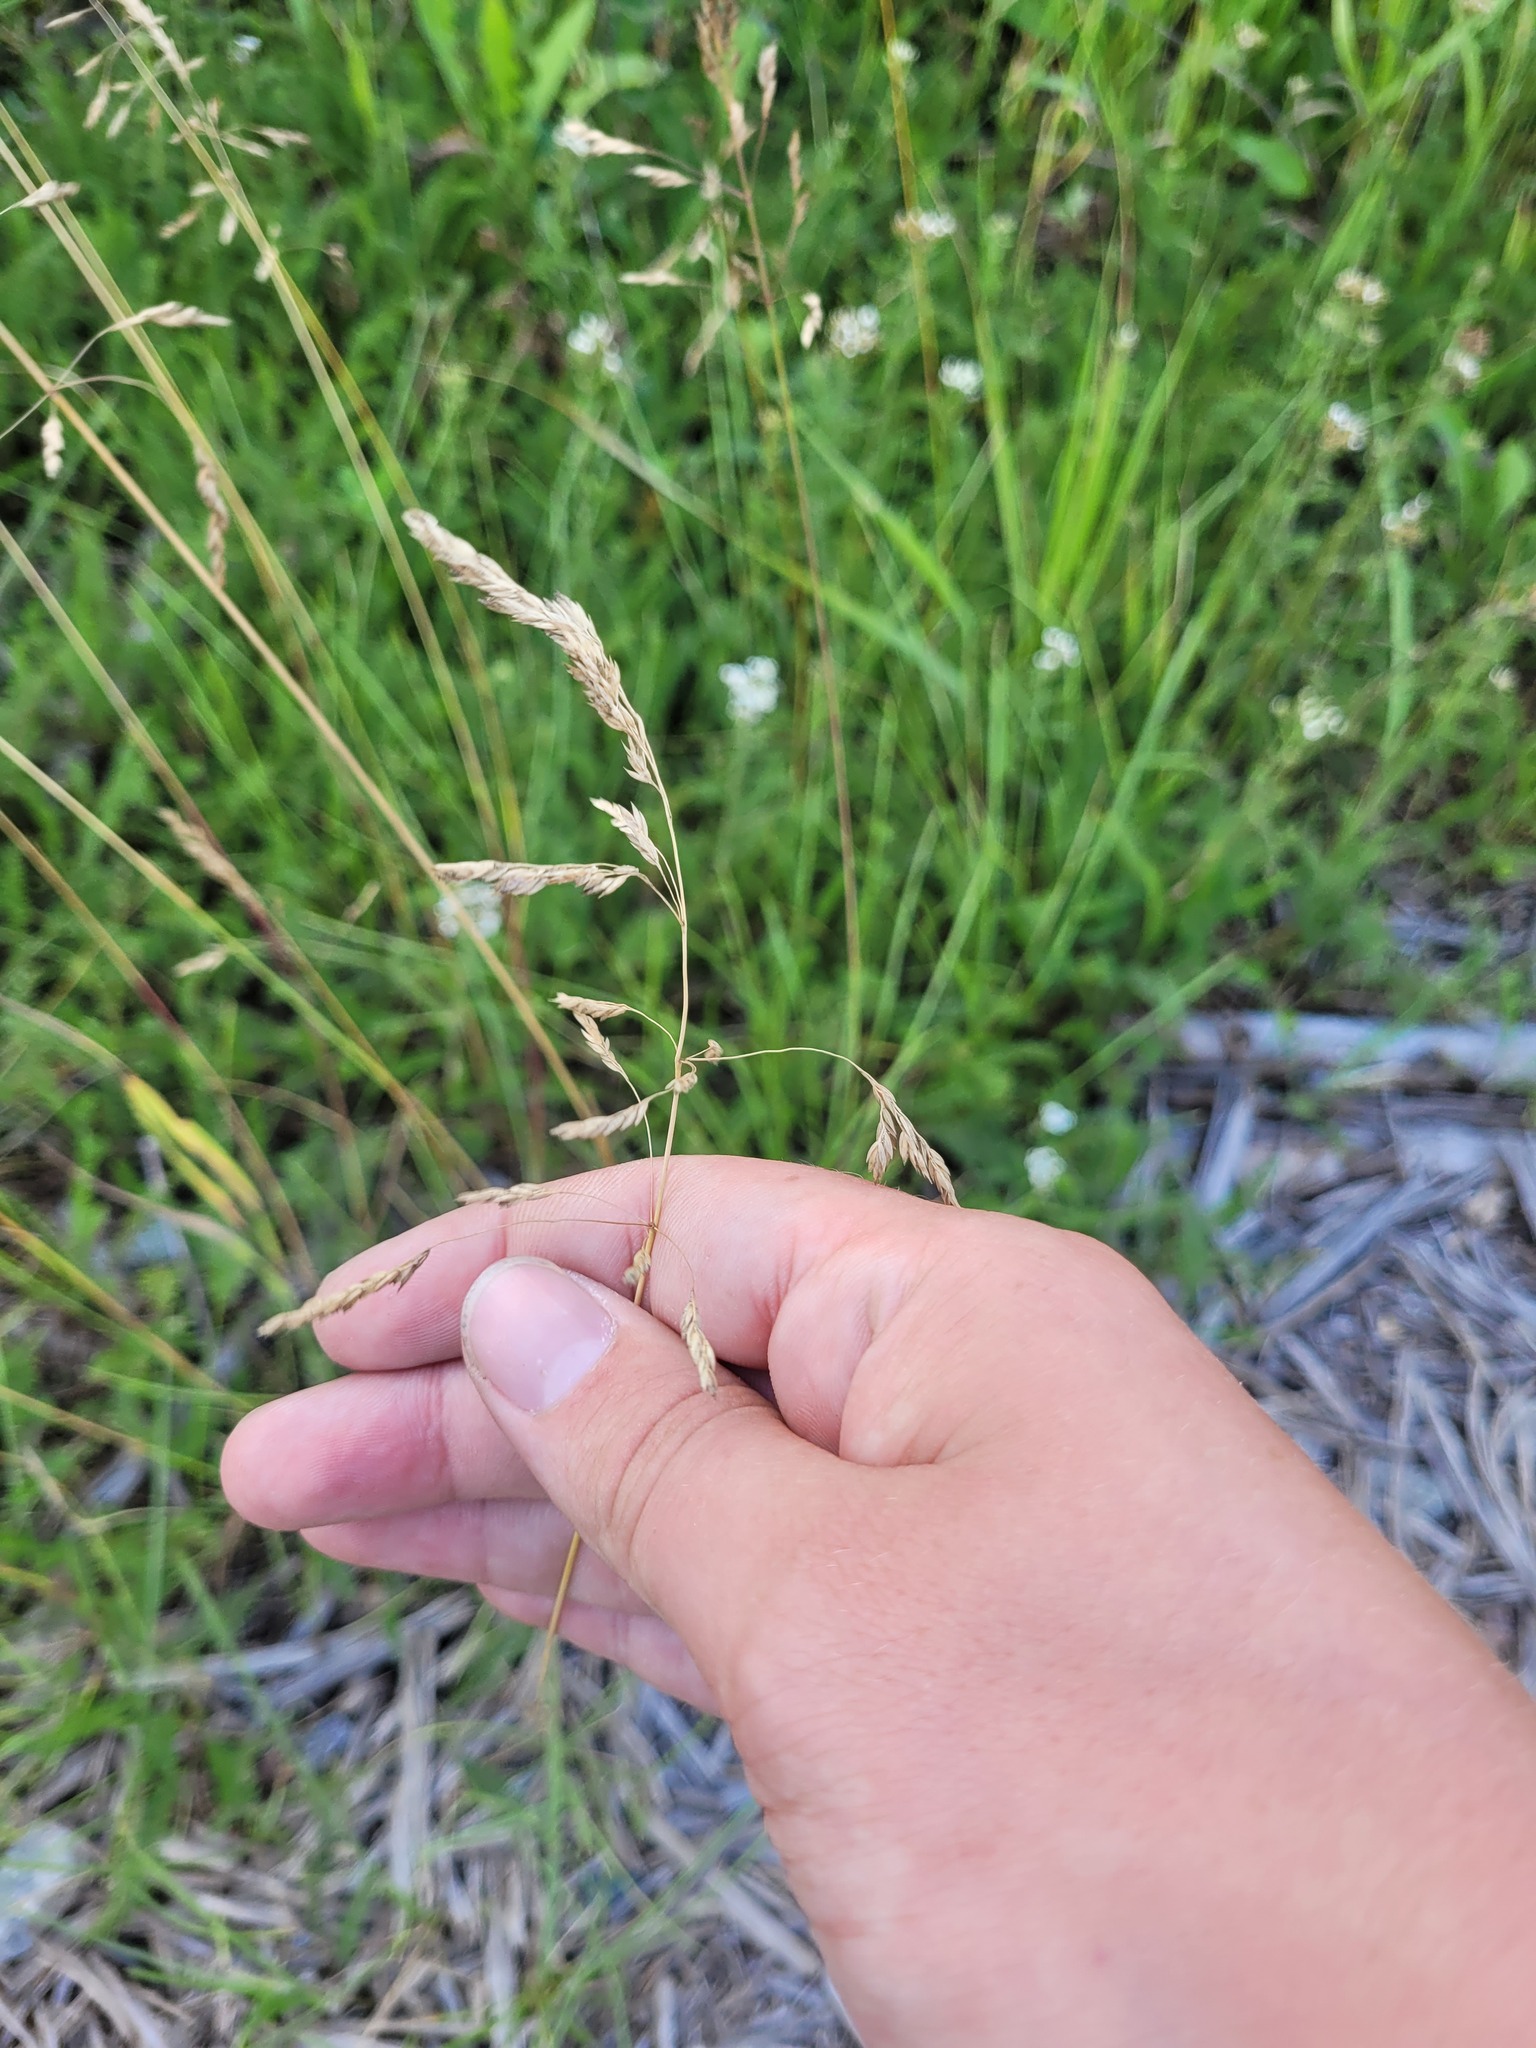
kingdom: Plantae
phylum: Tracheophyta
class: Liliopsida
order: Poales
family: Poaceae
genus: Poa
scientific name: Poa angustifolia
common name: Narrow-leaved meadow-grass
